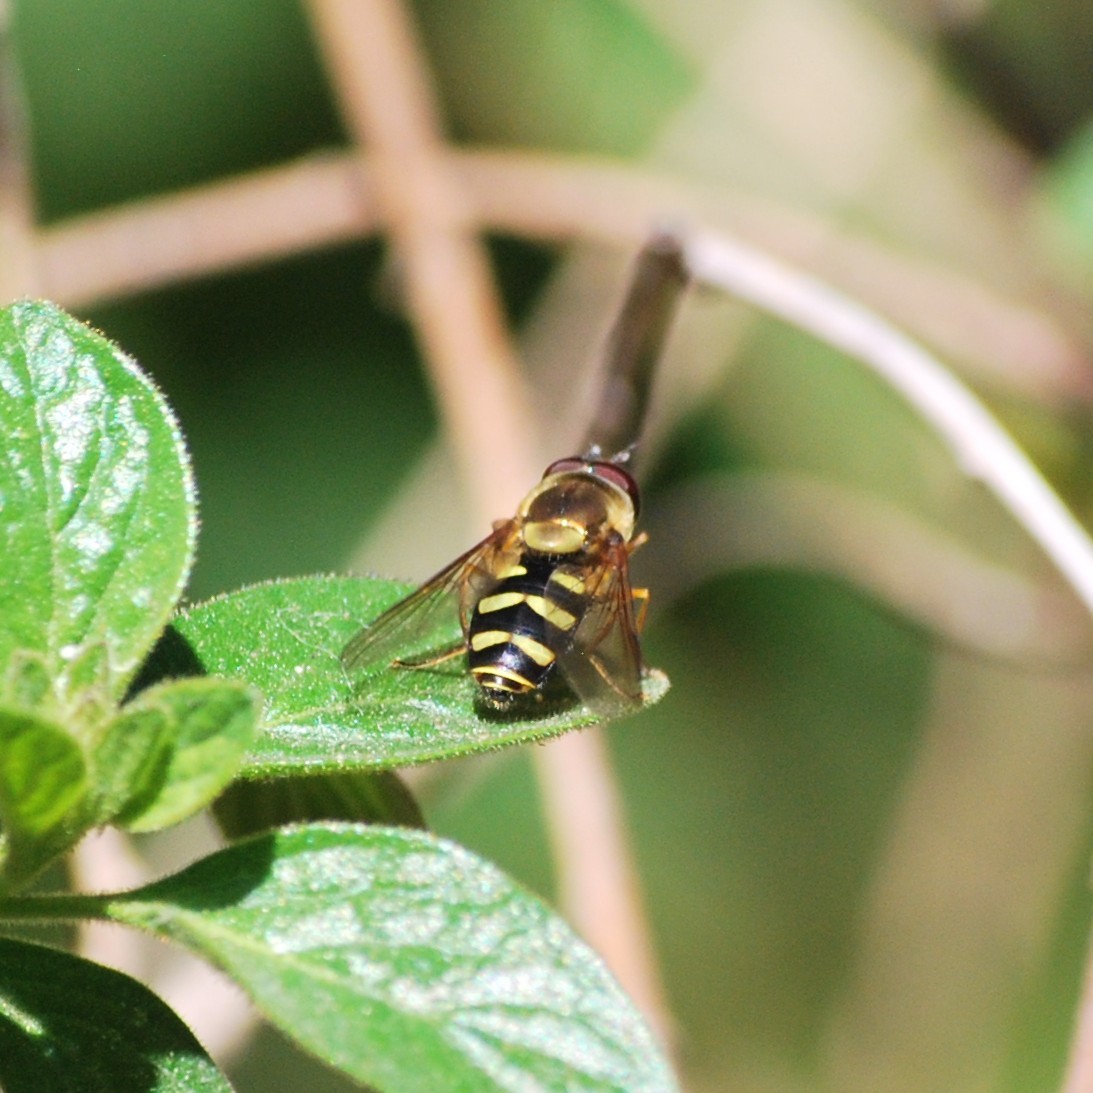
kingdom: Animalia
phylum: Arthropoda
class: Insecta
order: Diptera
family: Syrphidae
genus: Syrphus
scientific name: Syrphus opinator
